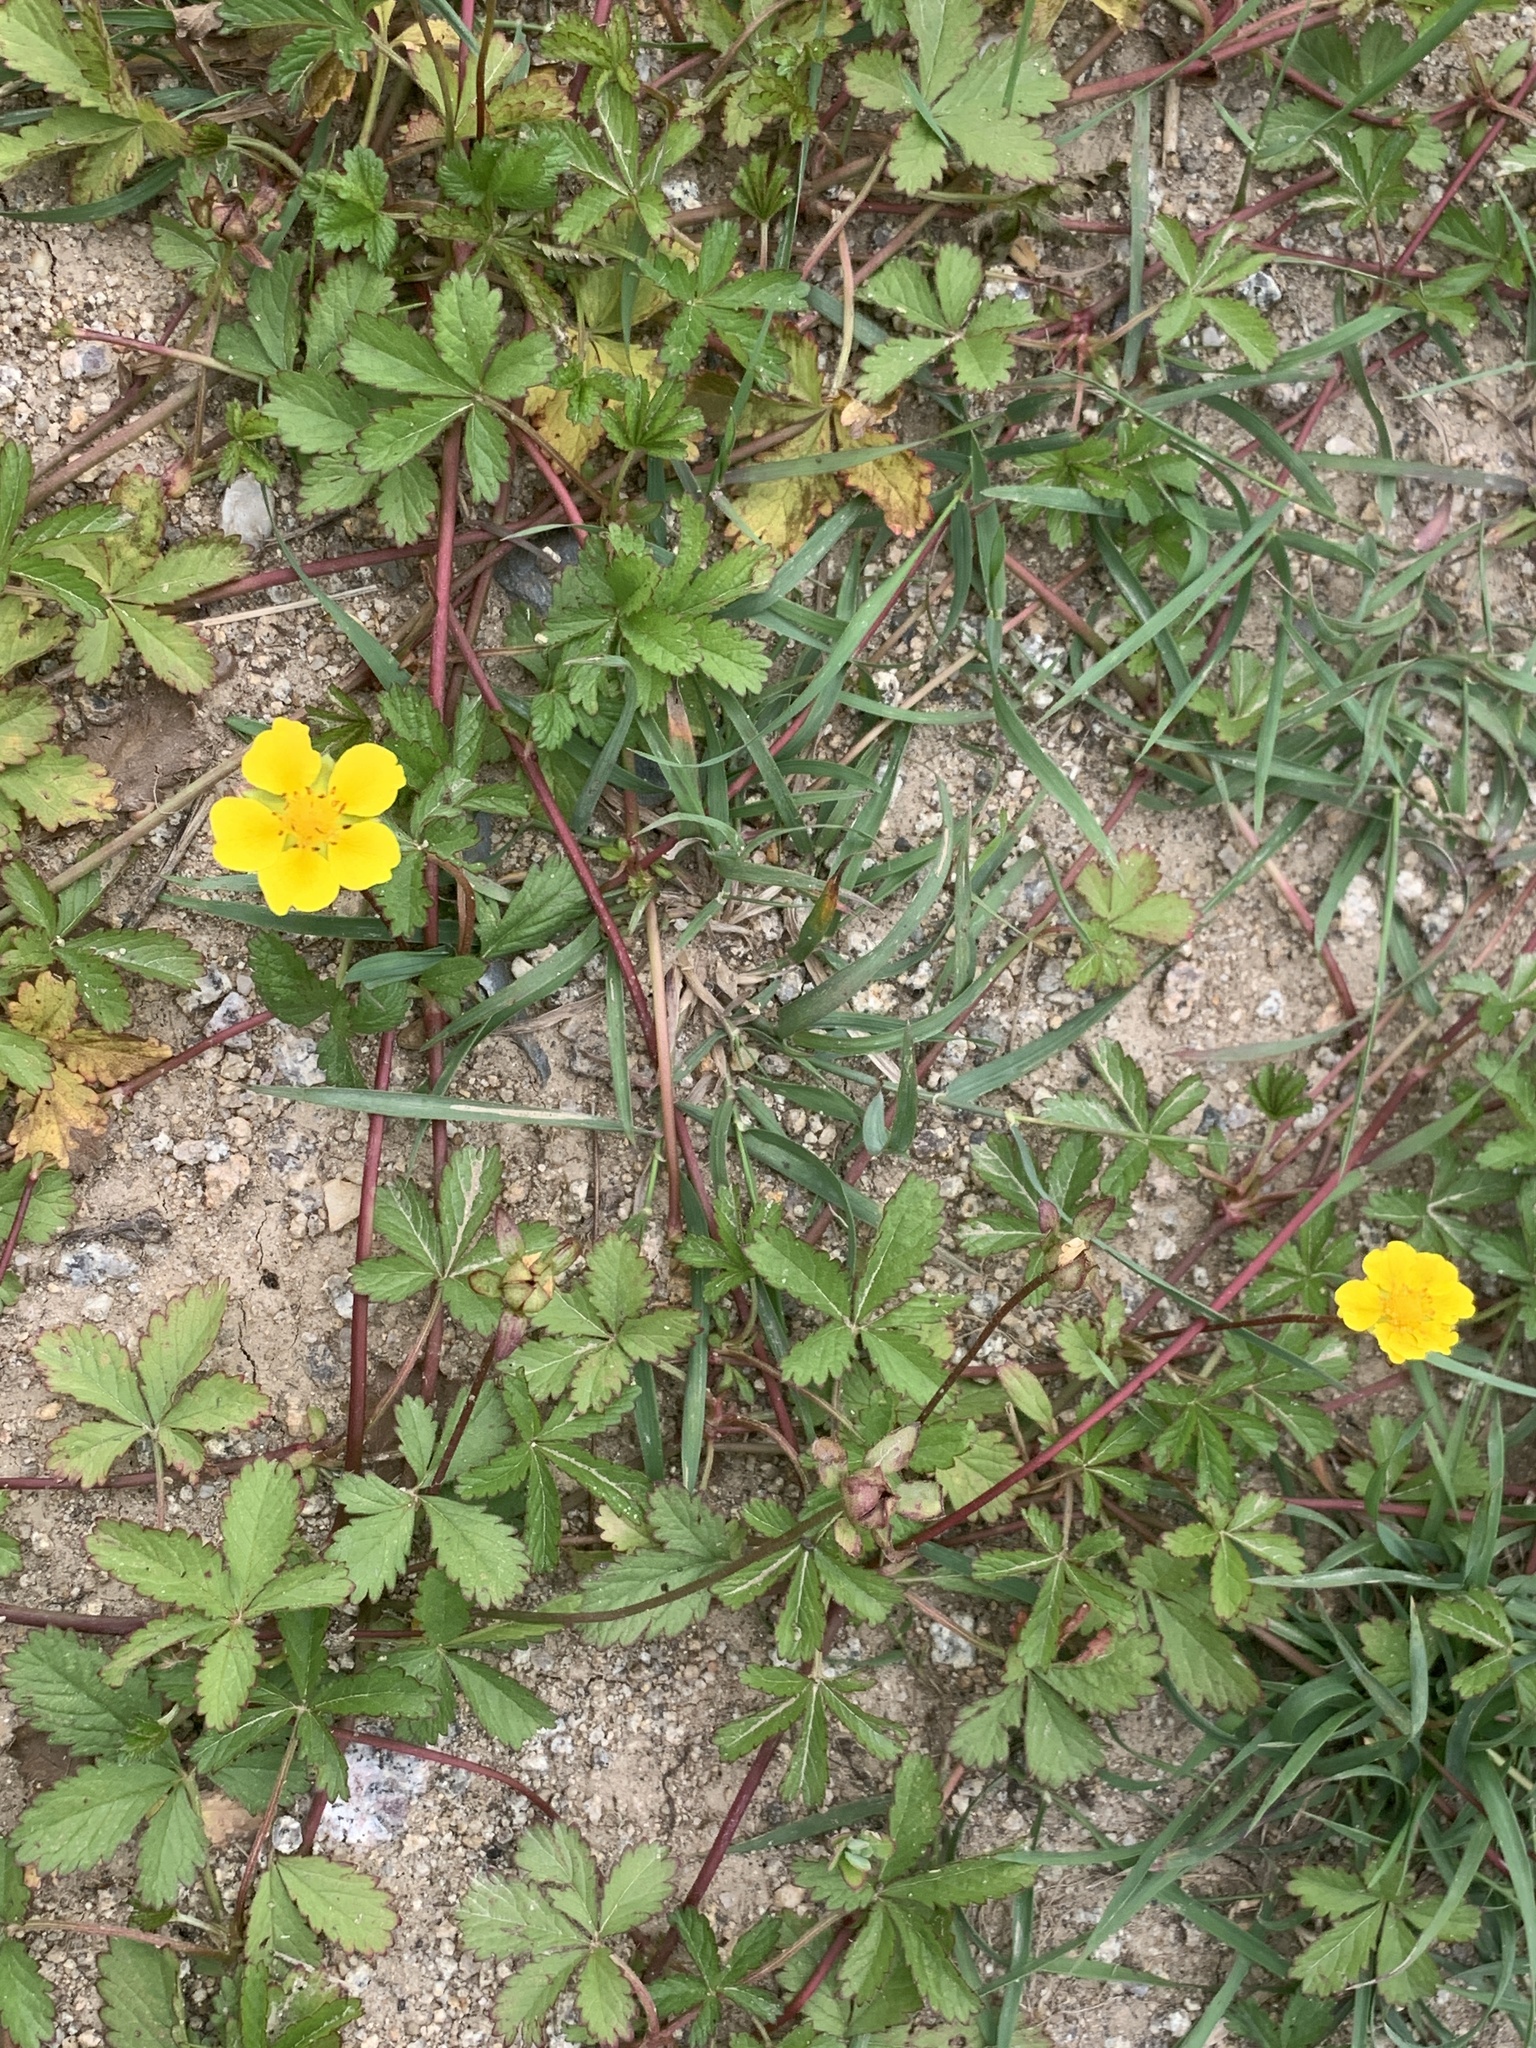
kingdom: Plantae
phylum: Tracheophyta
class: Magnoliopsida
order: Rosales
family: Rosaceae
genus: Potentilla
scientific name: Potentilla reptans
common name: Creeping cinquefoil
